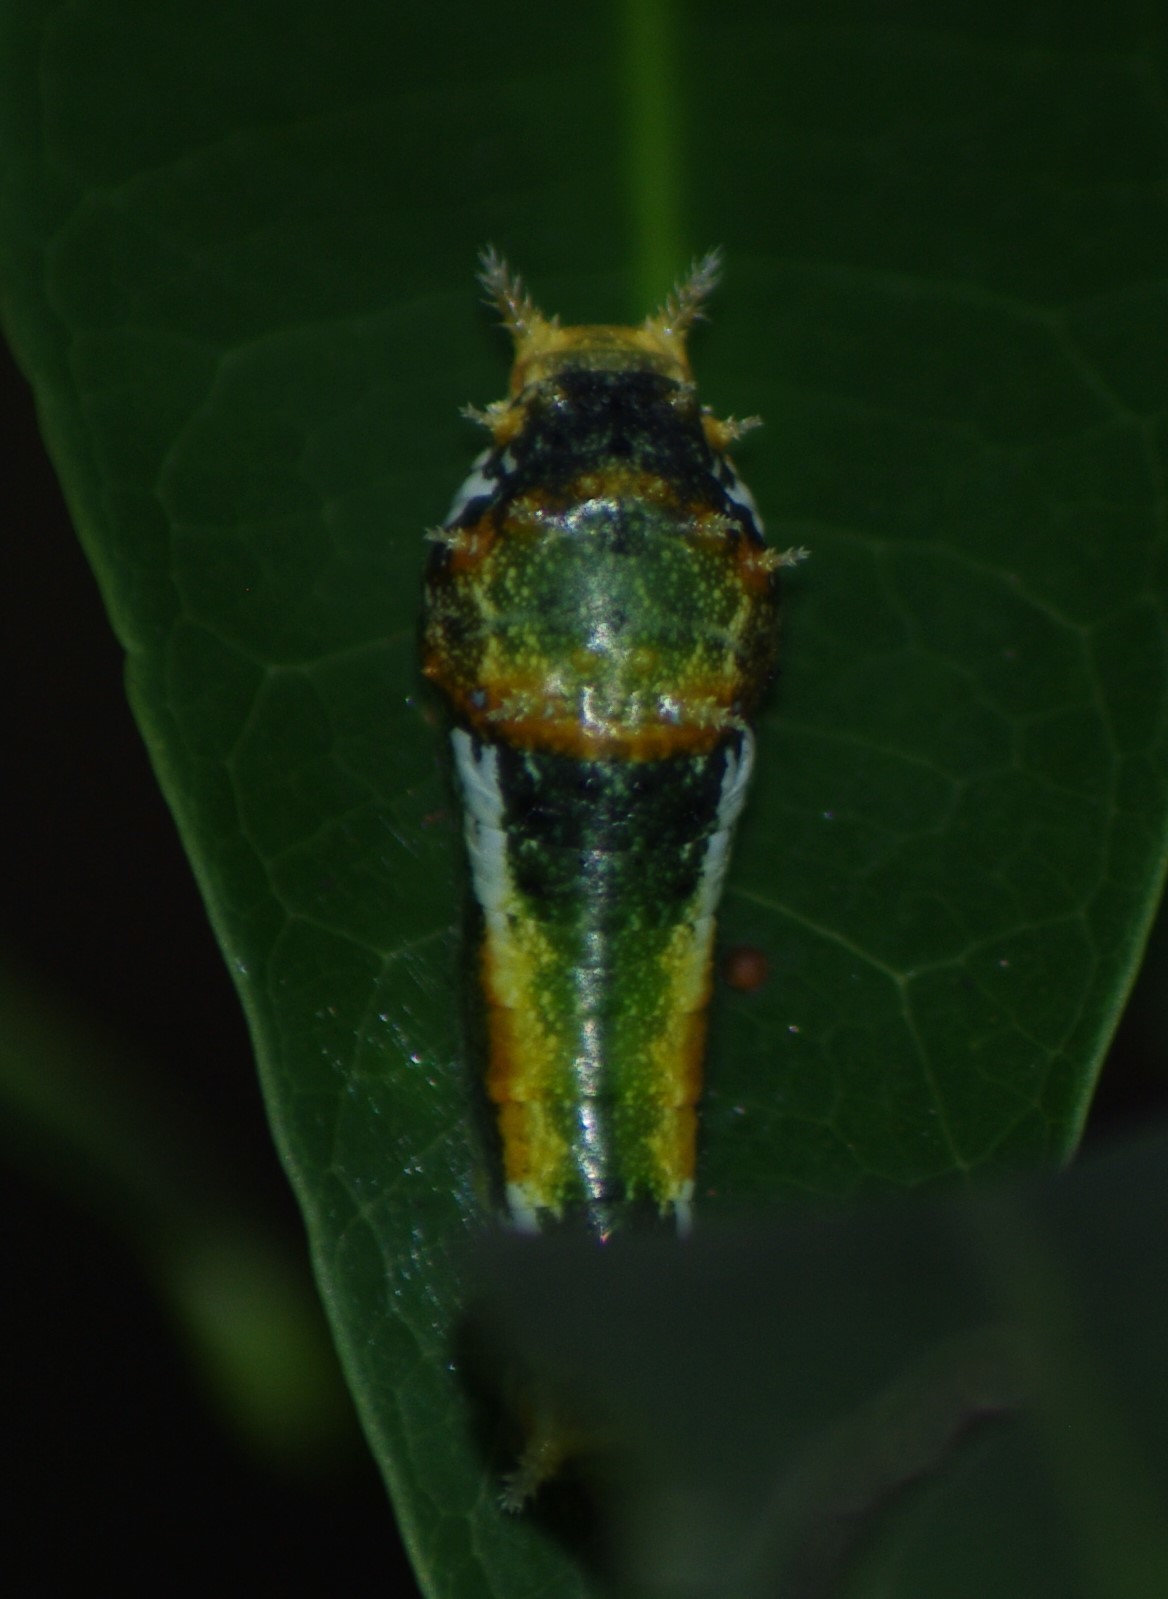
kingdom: Animalia
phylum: Arthropoda
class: Insecta
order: Lepidoptera
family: Papilionidae
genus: Papilio
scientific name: Papilio nireus
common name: Greenbanded swallowtail
